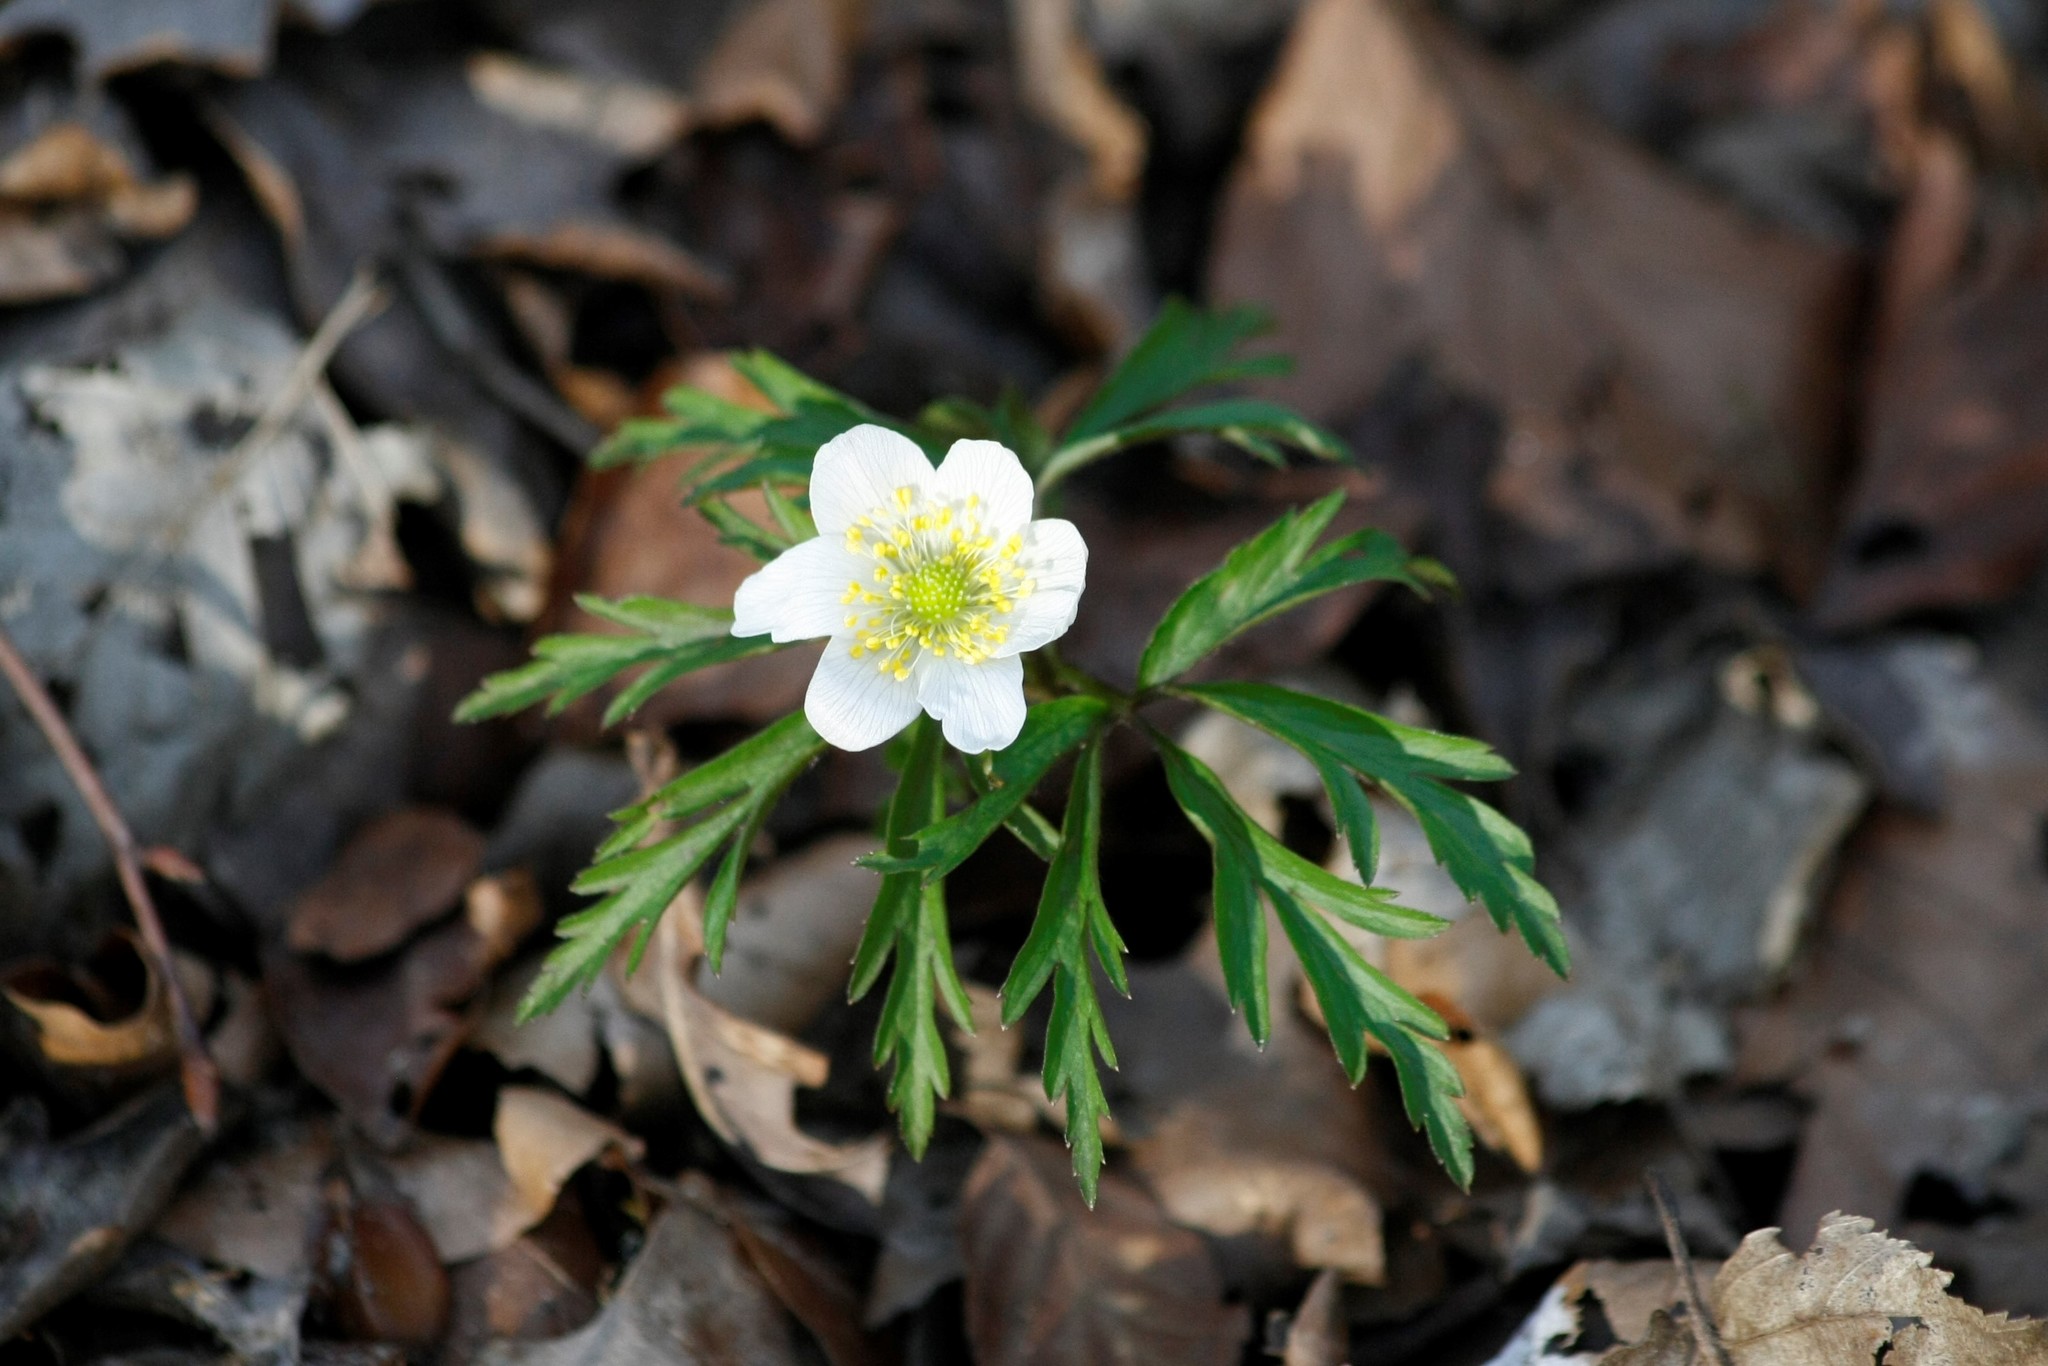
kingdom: Plantae
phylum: Tracheophyta
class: Magnoliopsida
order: Ranunculales
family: Ranunculaceae
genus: Anemone
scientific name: Anemone nemorosa
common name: Wood anemone
